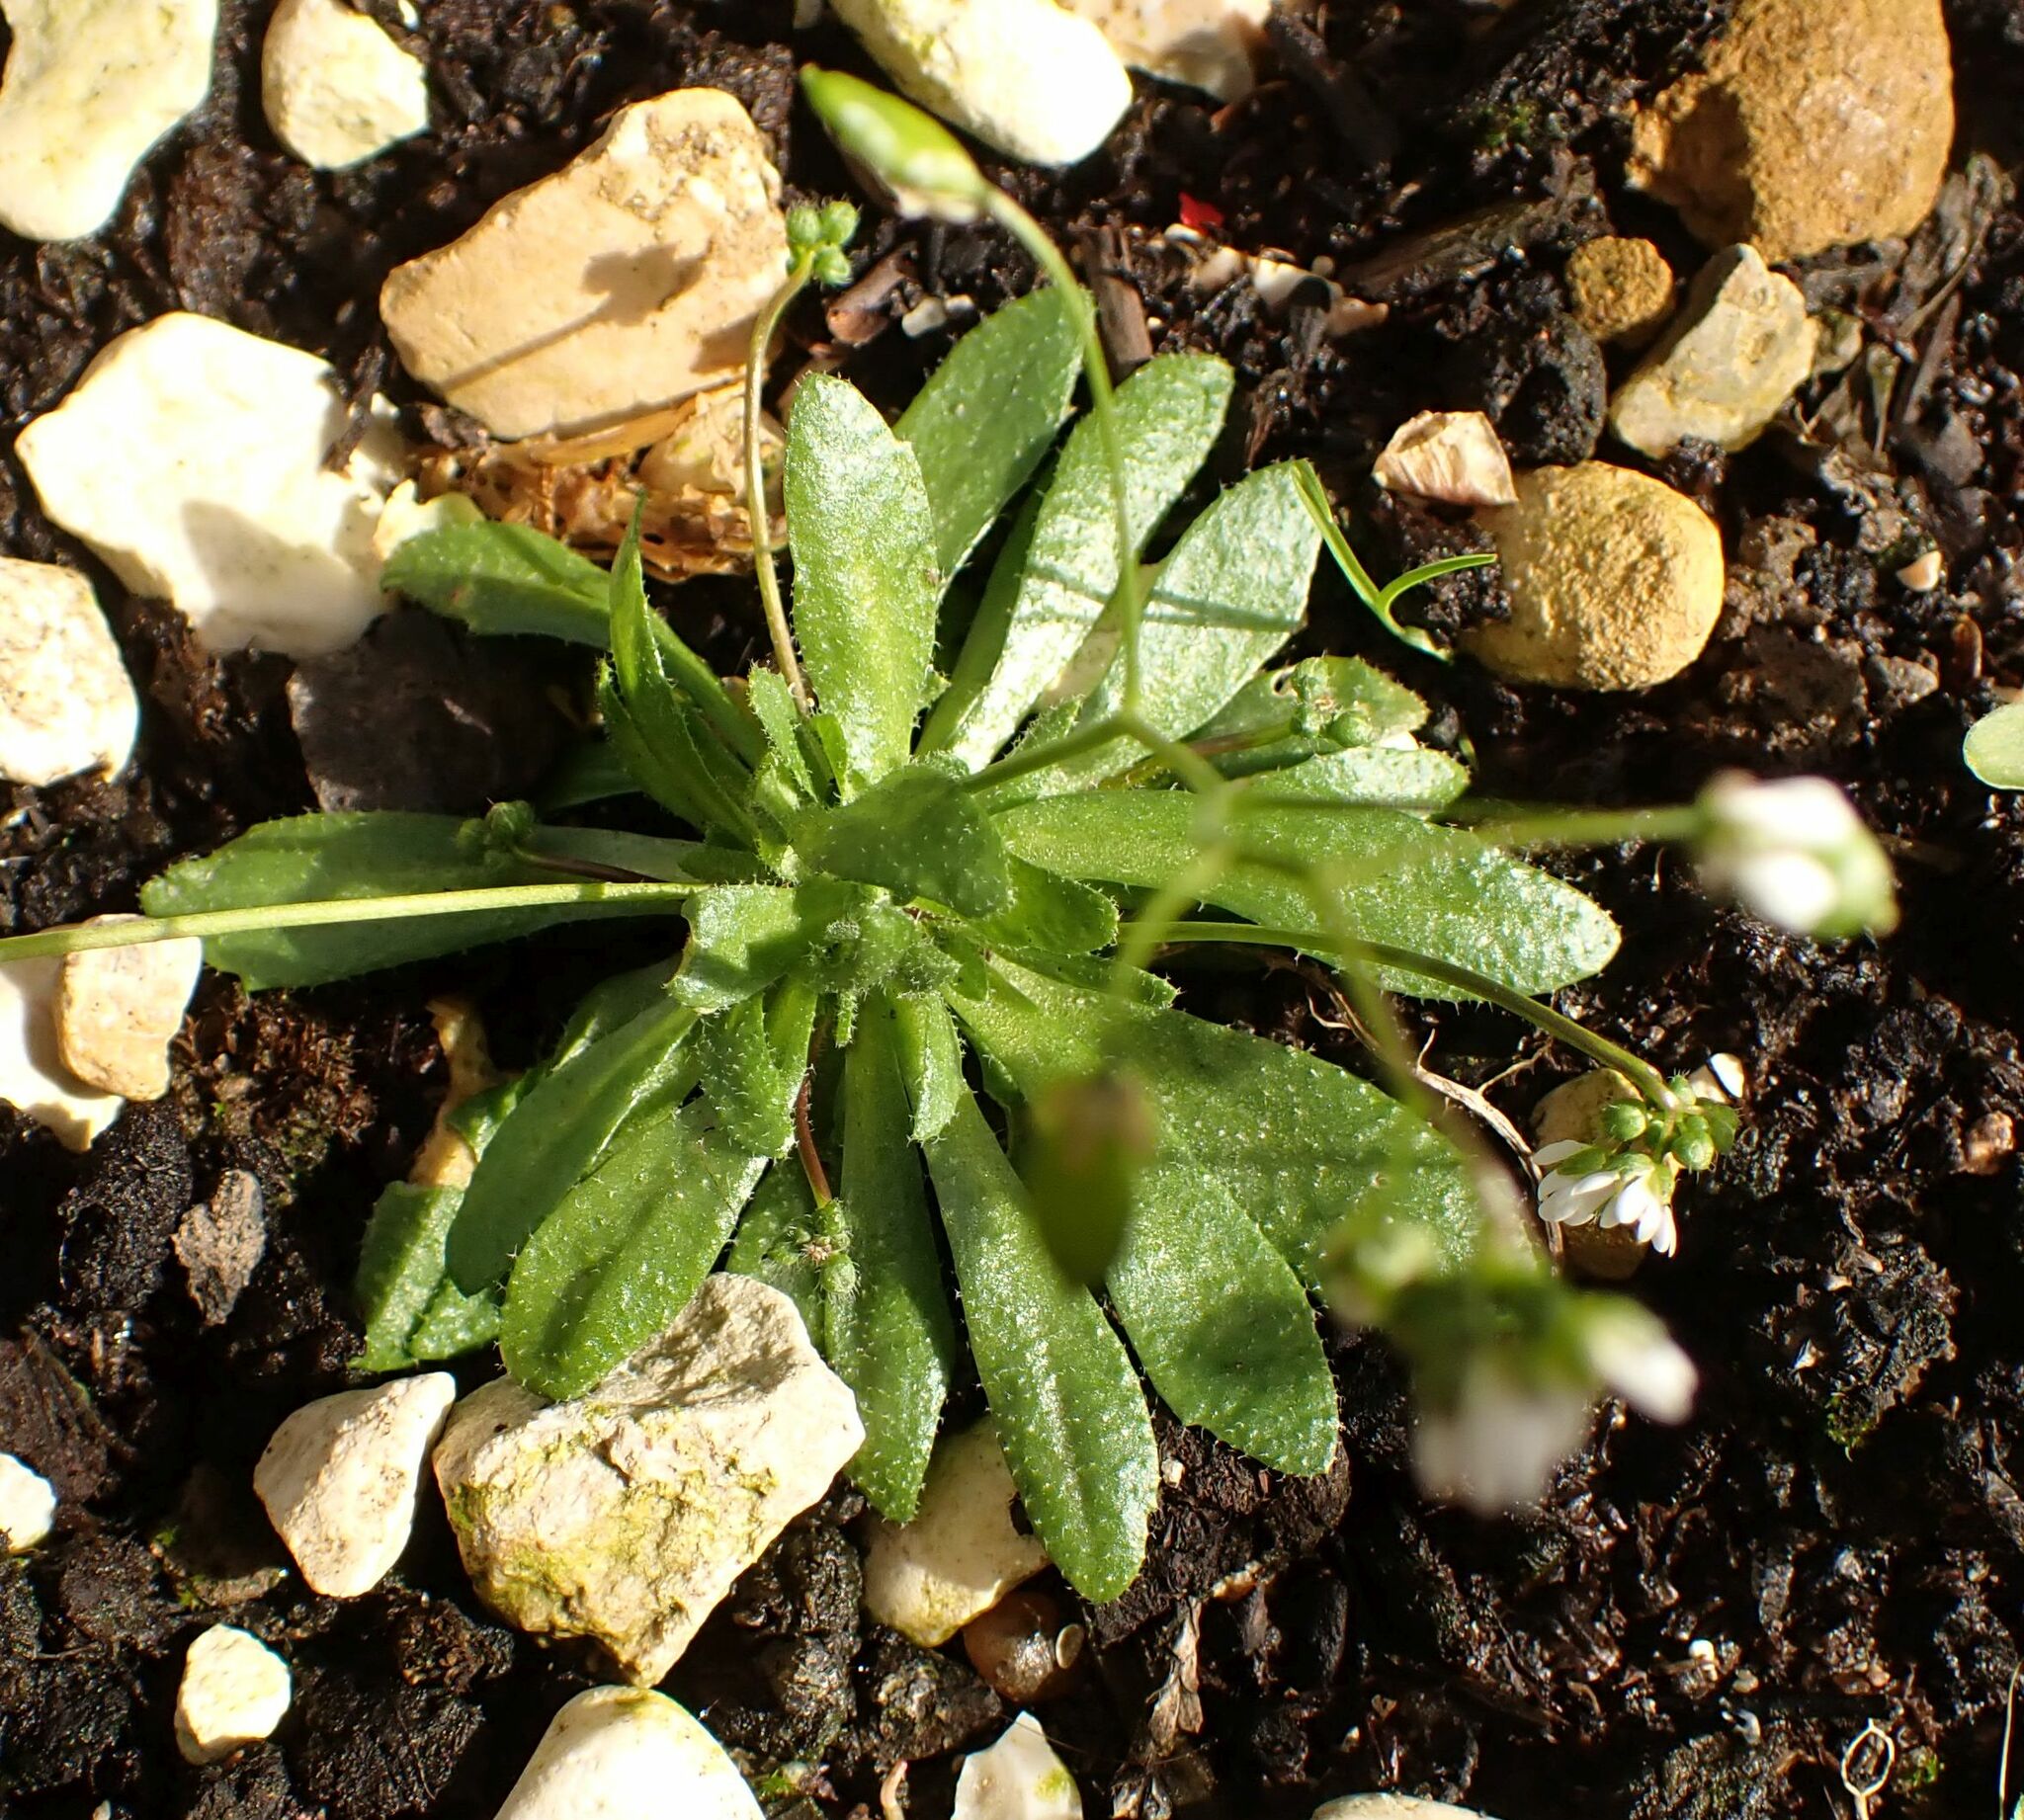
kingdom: Plantae
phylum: Tracheophyta
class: Magnoliopsida
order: Brassicales
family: Brassicaceae
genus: Draba
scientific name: Draba verna
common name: Spring draba
